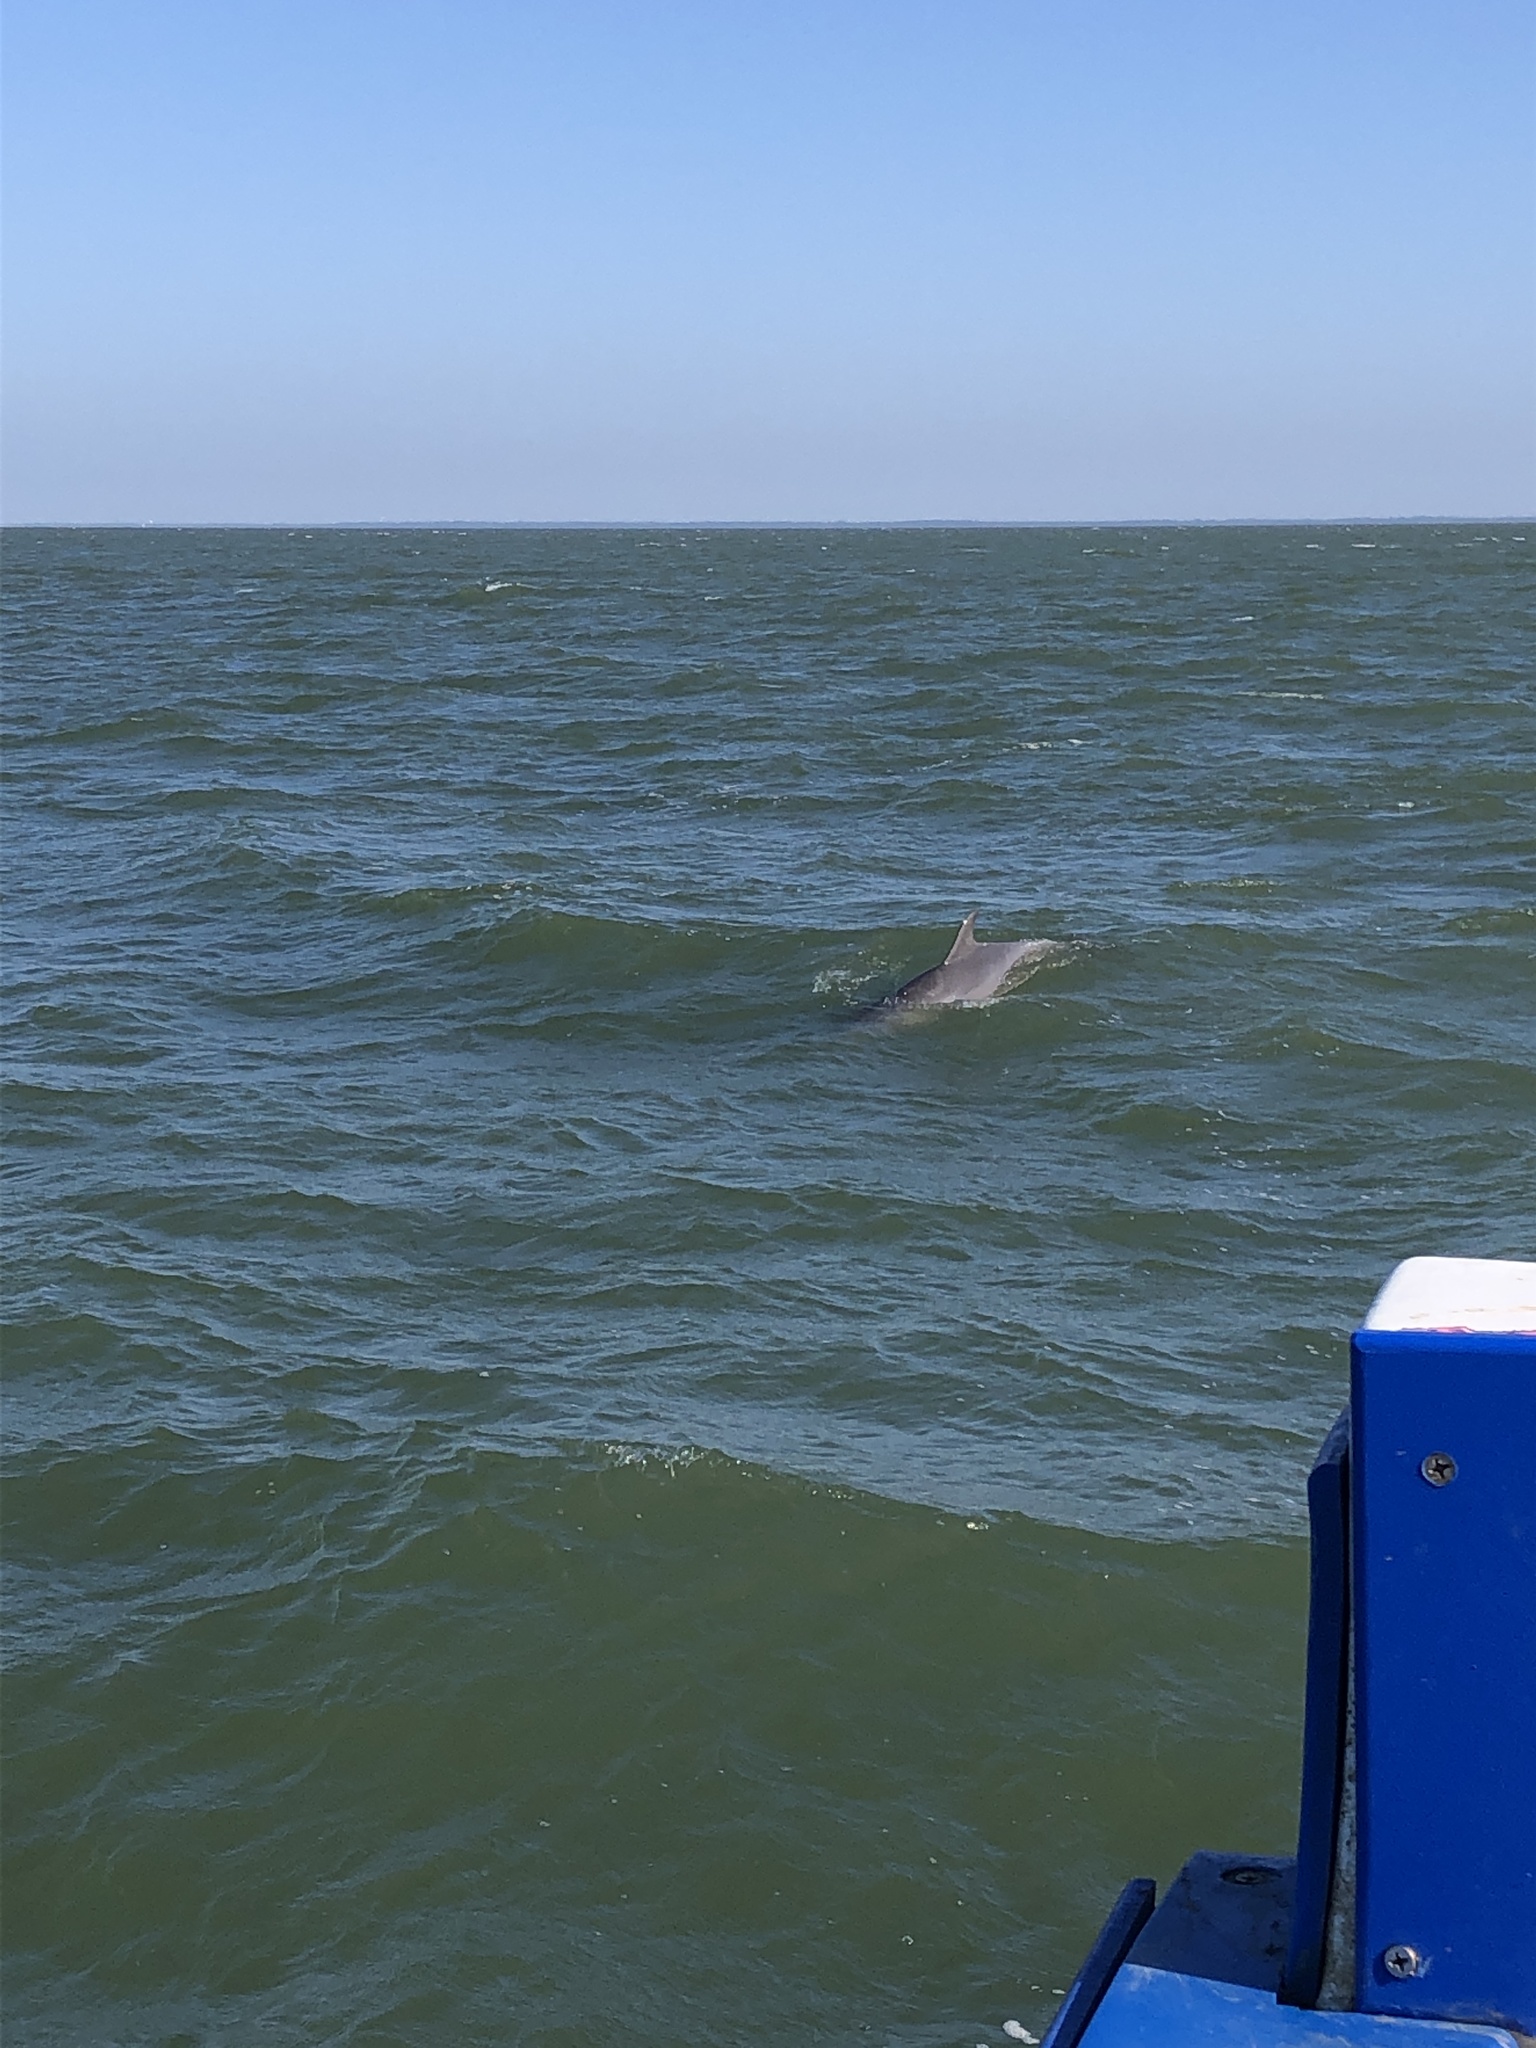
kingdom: Animalia
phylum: Chordata
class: Mammalia
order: Cetacea
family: Delphinidae
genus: Tursiops
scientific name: Tursiops truncatus
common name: Bottlenose dolphin
